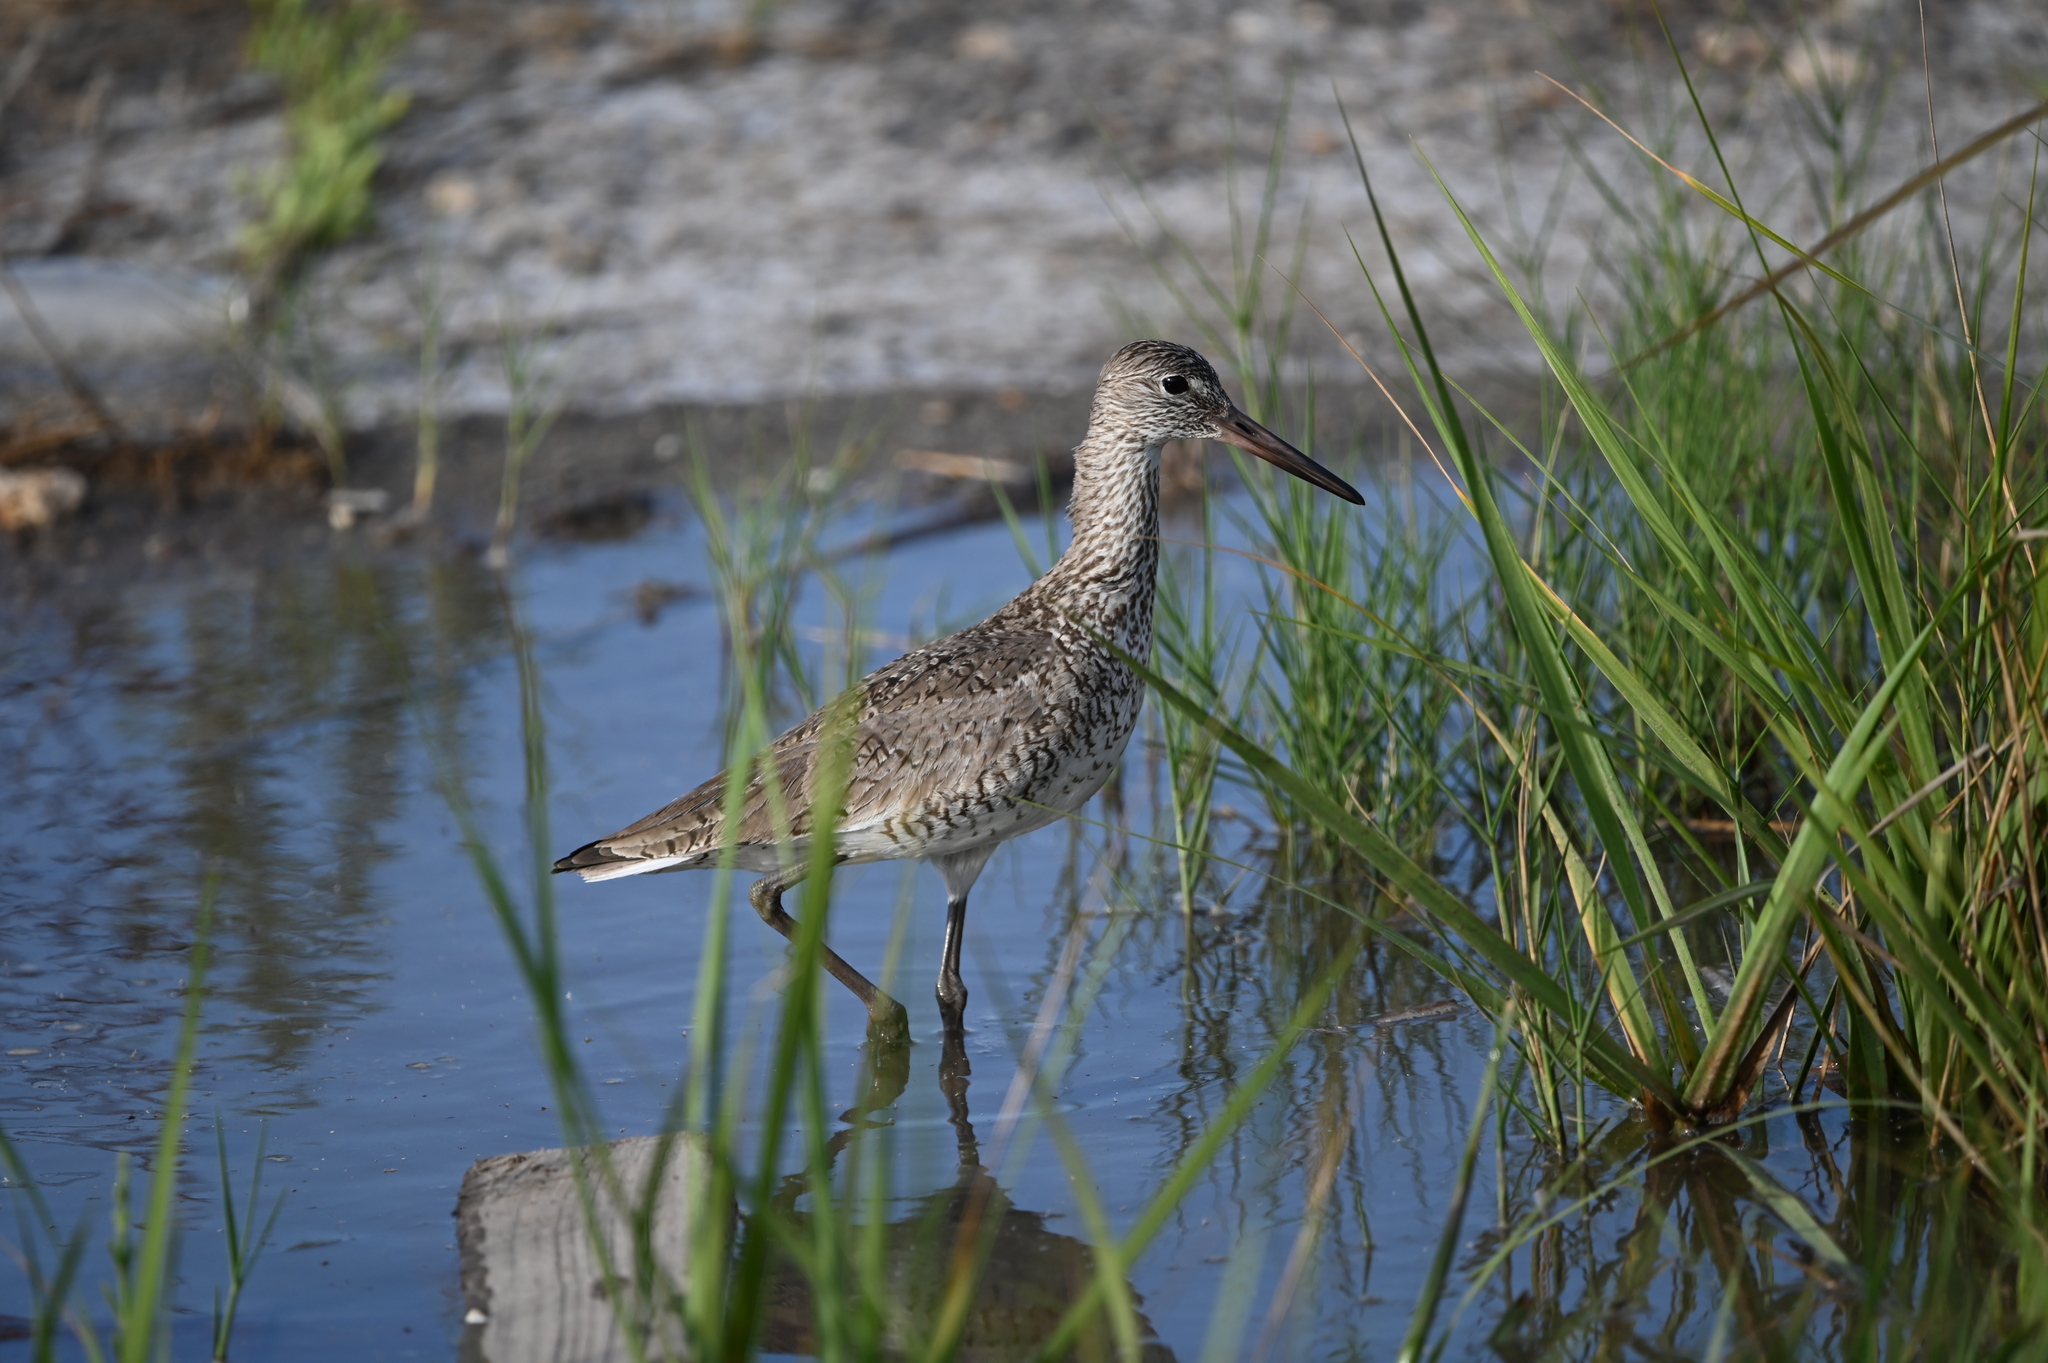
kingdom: Animalia
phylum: Chordata
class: Aves
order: Charadriiformes
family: Scolopacidae
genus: Tringa
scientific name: Tringa semipalmata
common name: Willet
